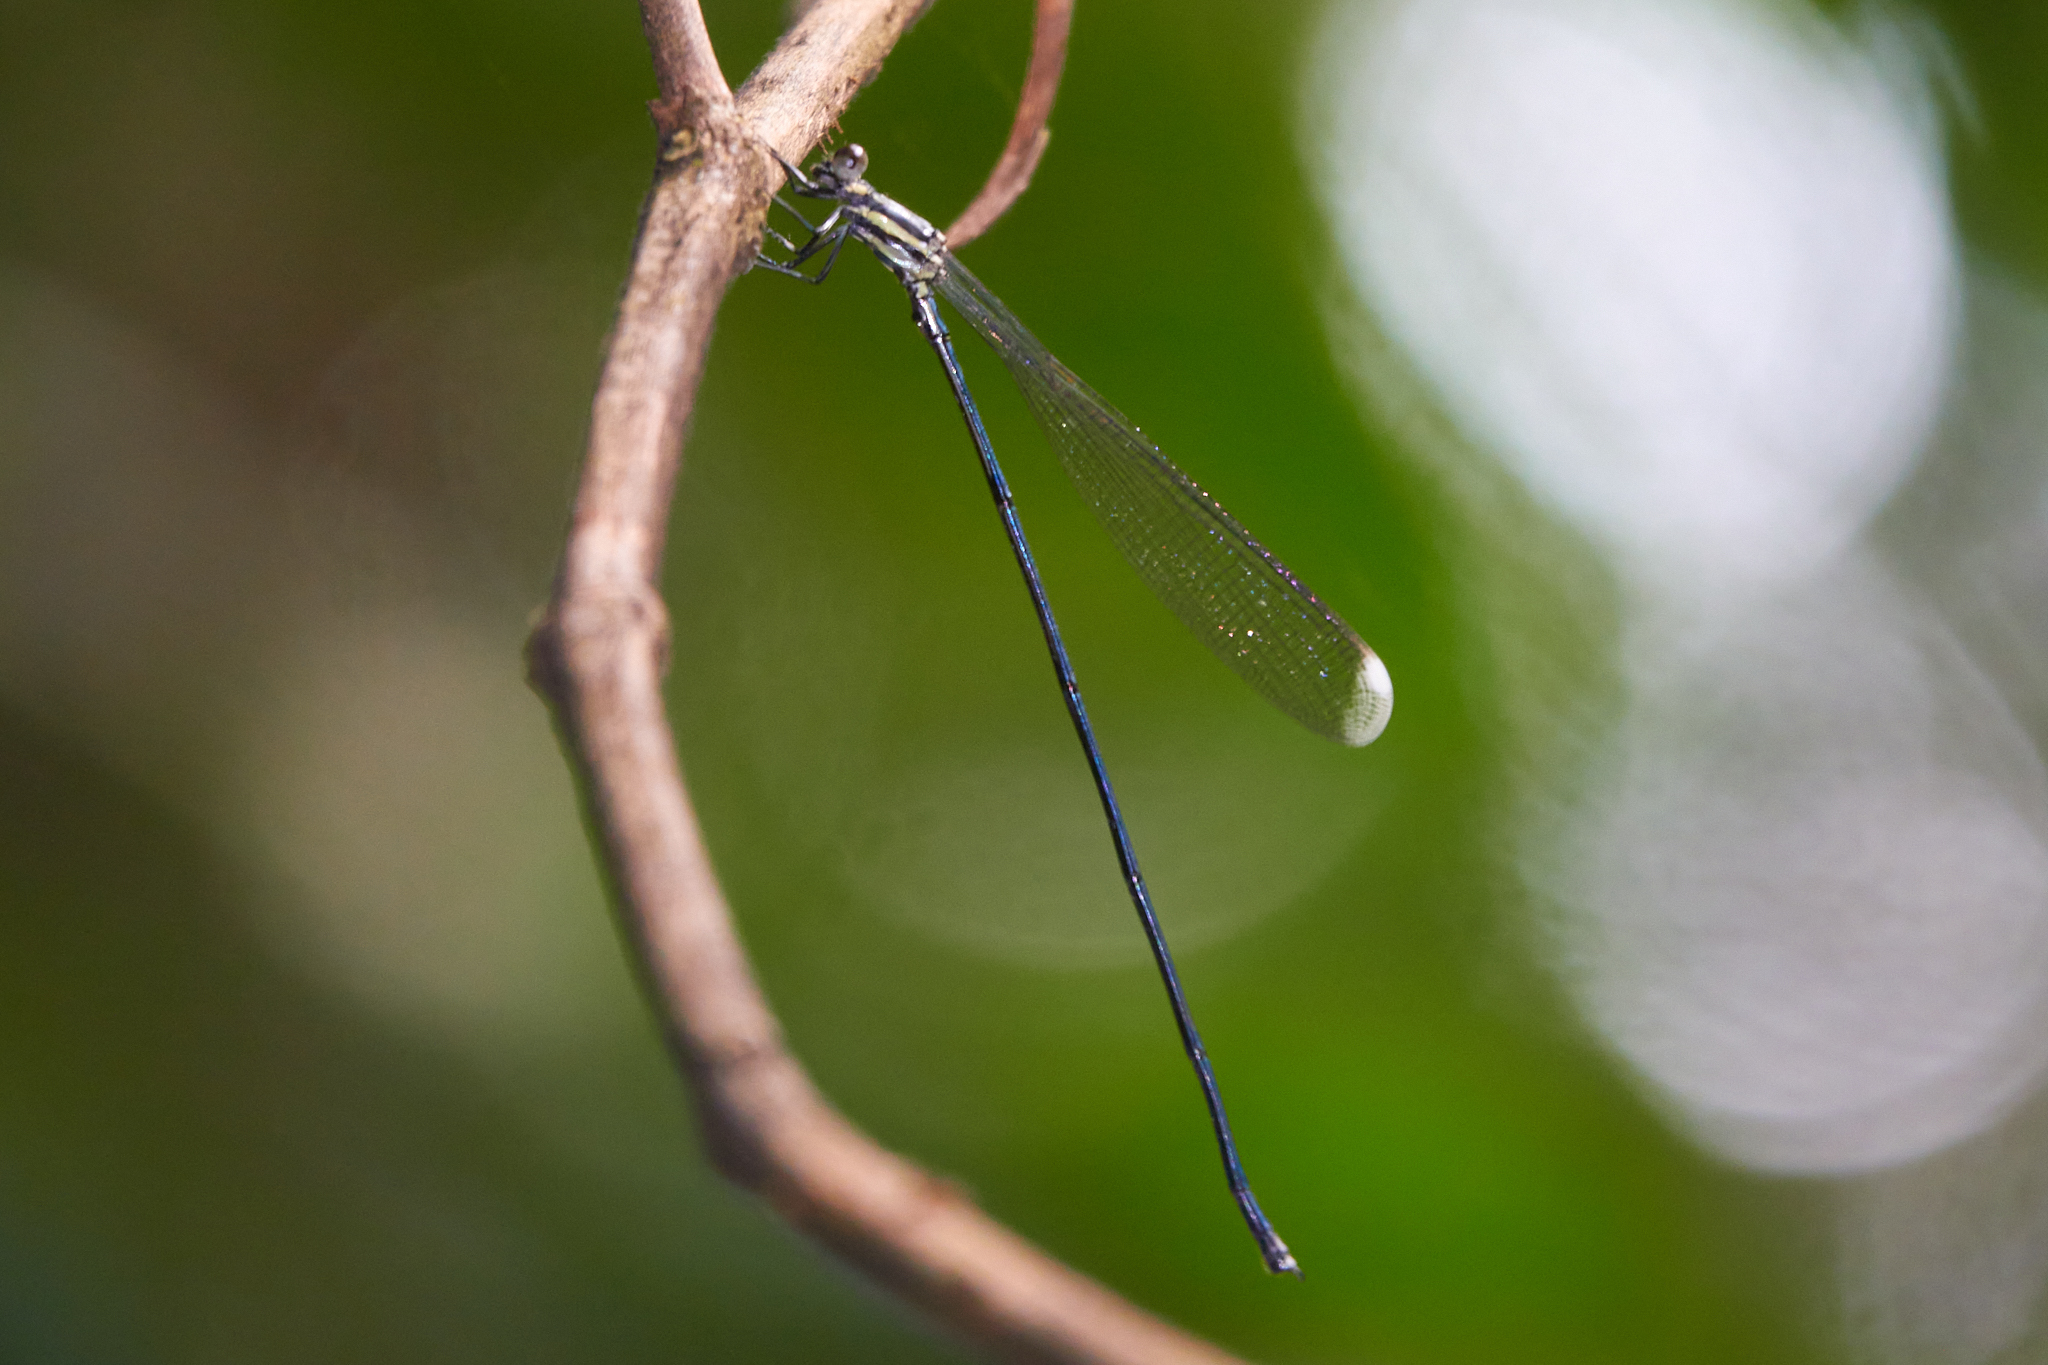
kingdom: Animalia
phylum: Arthropoda
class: Insecta
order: Odonata
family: Coenagrionidae
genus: Mecistogaster
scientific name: Mecistogaster modesta
